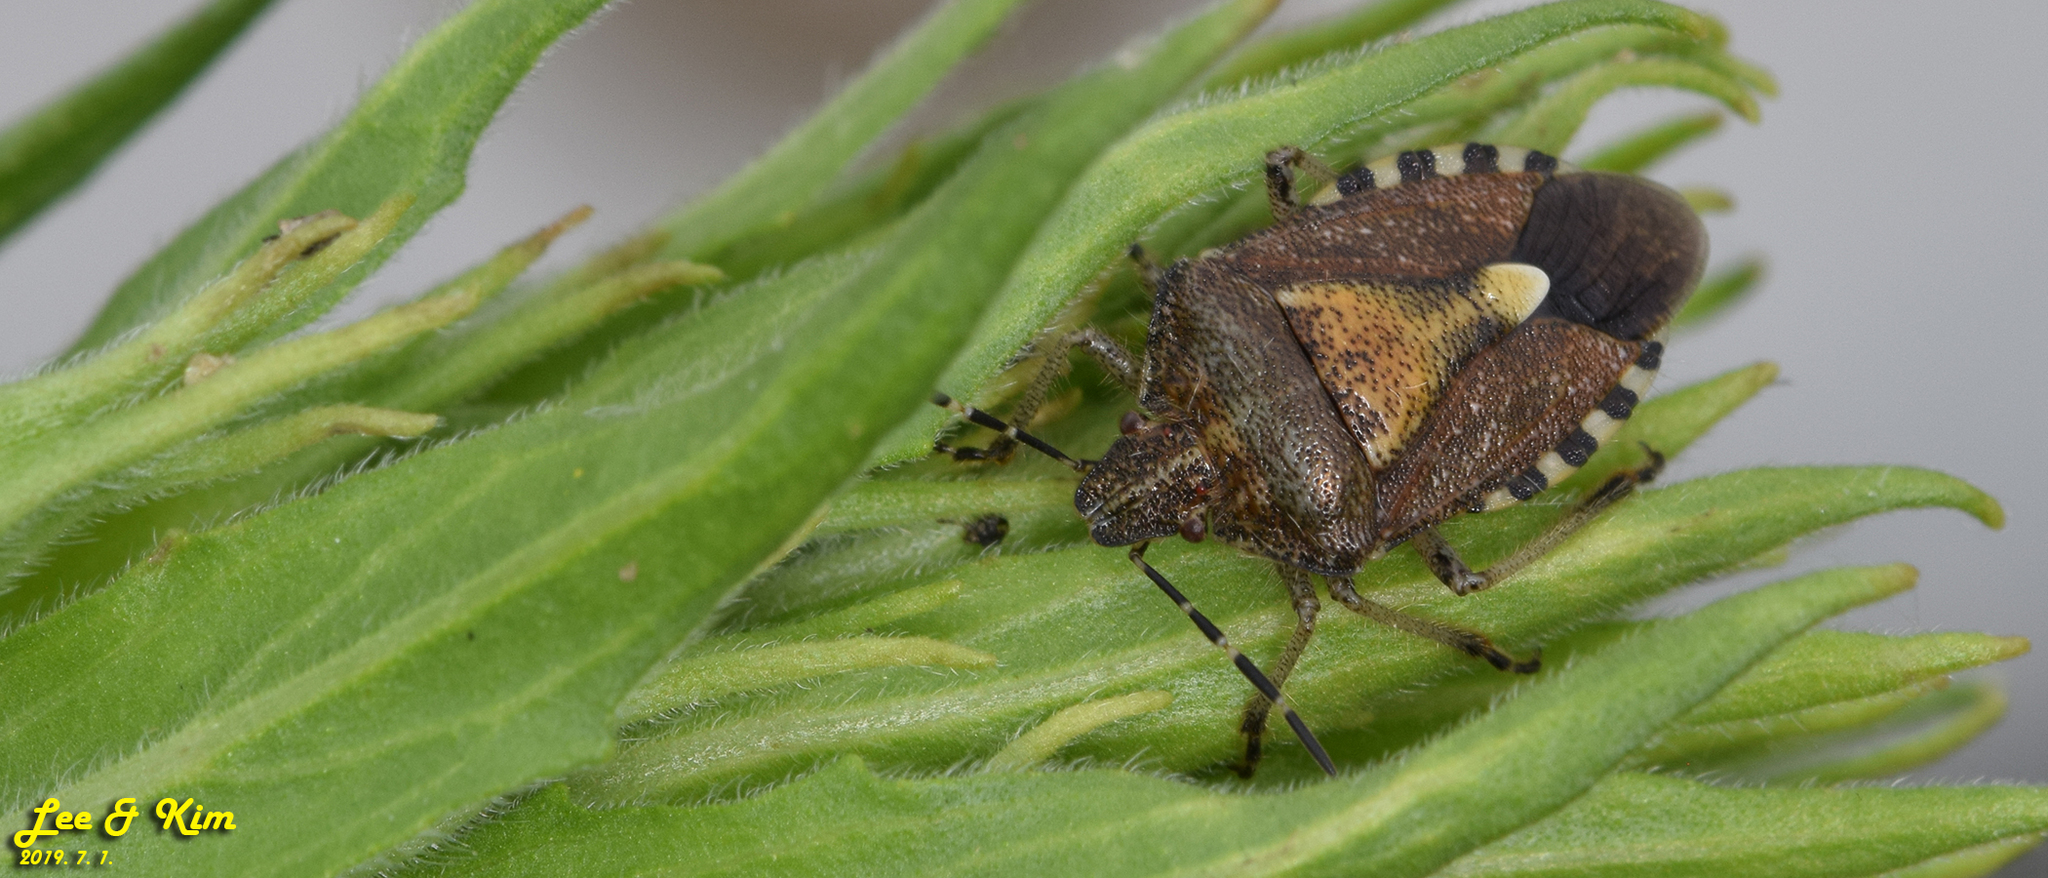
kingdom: Animalia
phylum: Arthropoda
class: Insecta
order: Hemiptera
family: Pentatomidae
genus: Dolycoris
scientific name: Dolycoris baccarum
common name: Sloe bug
